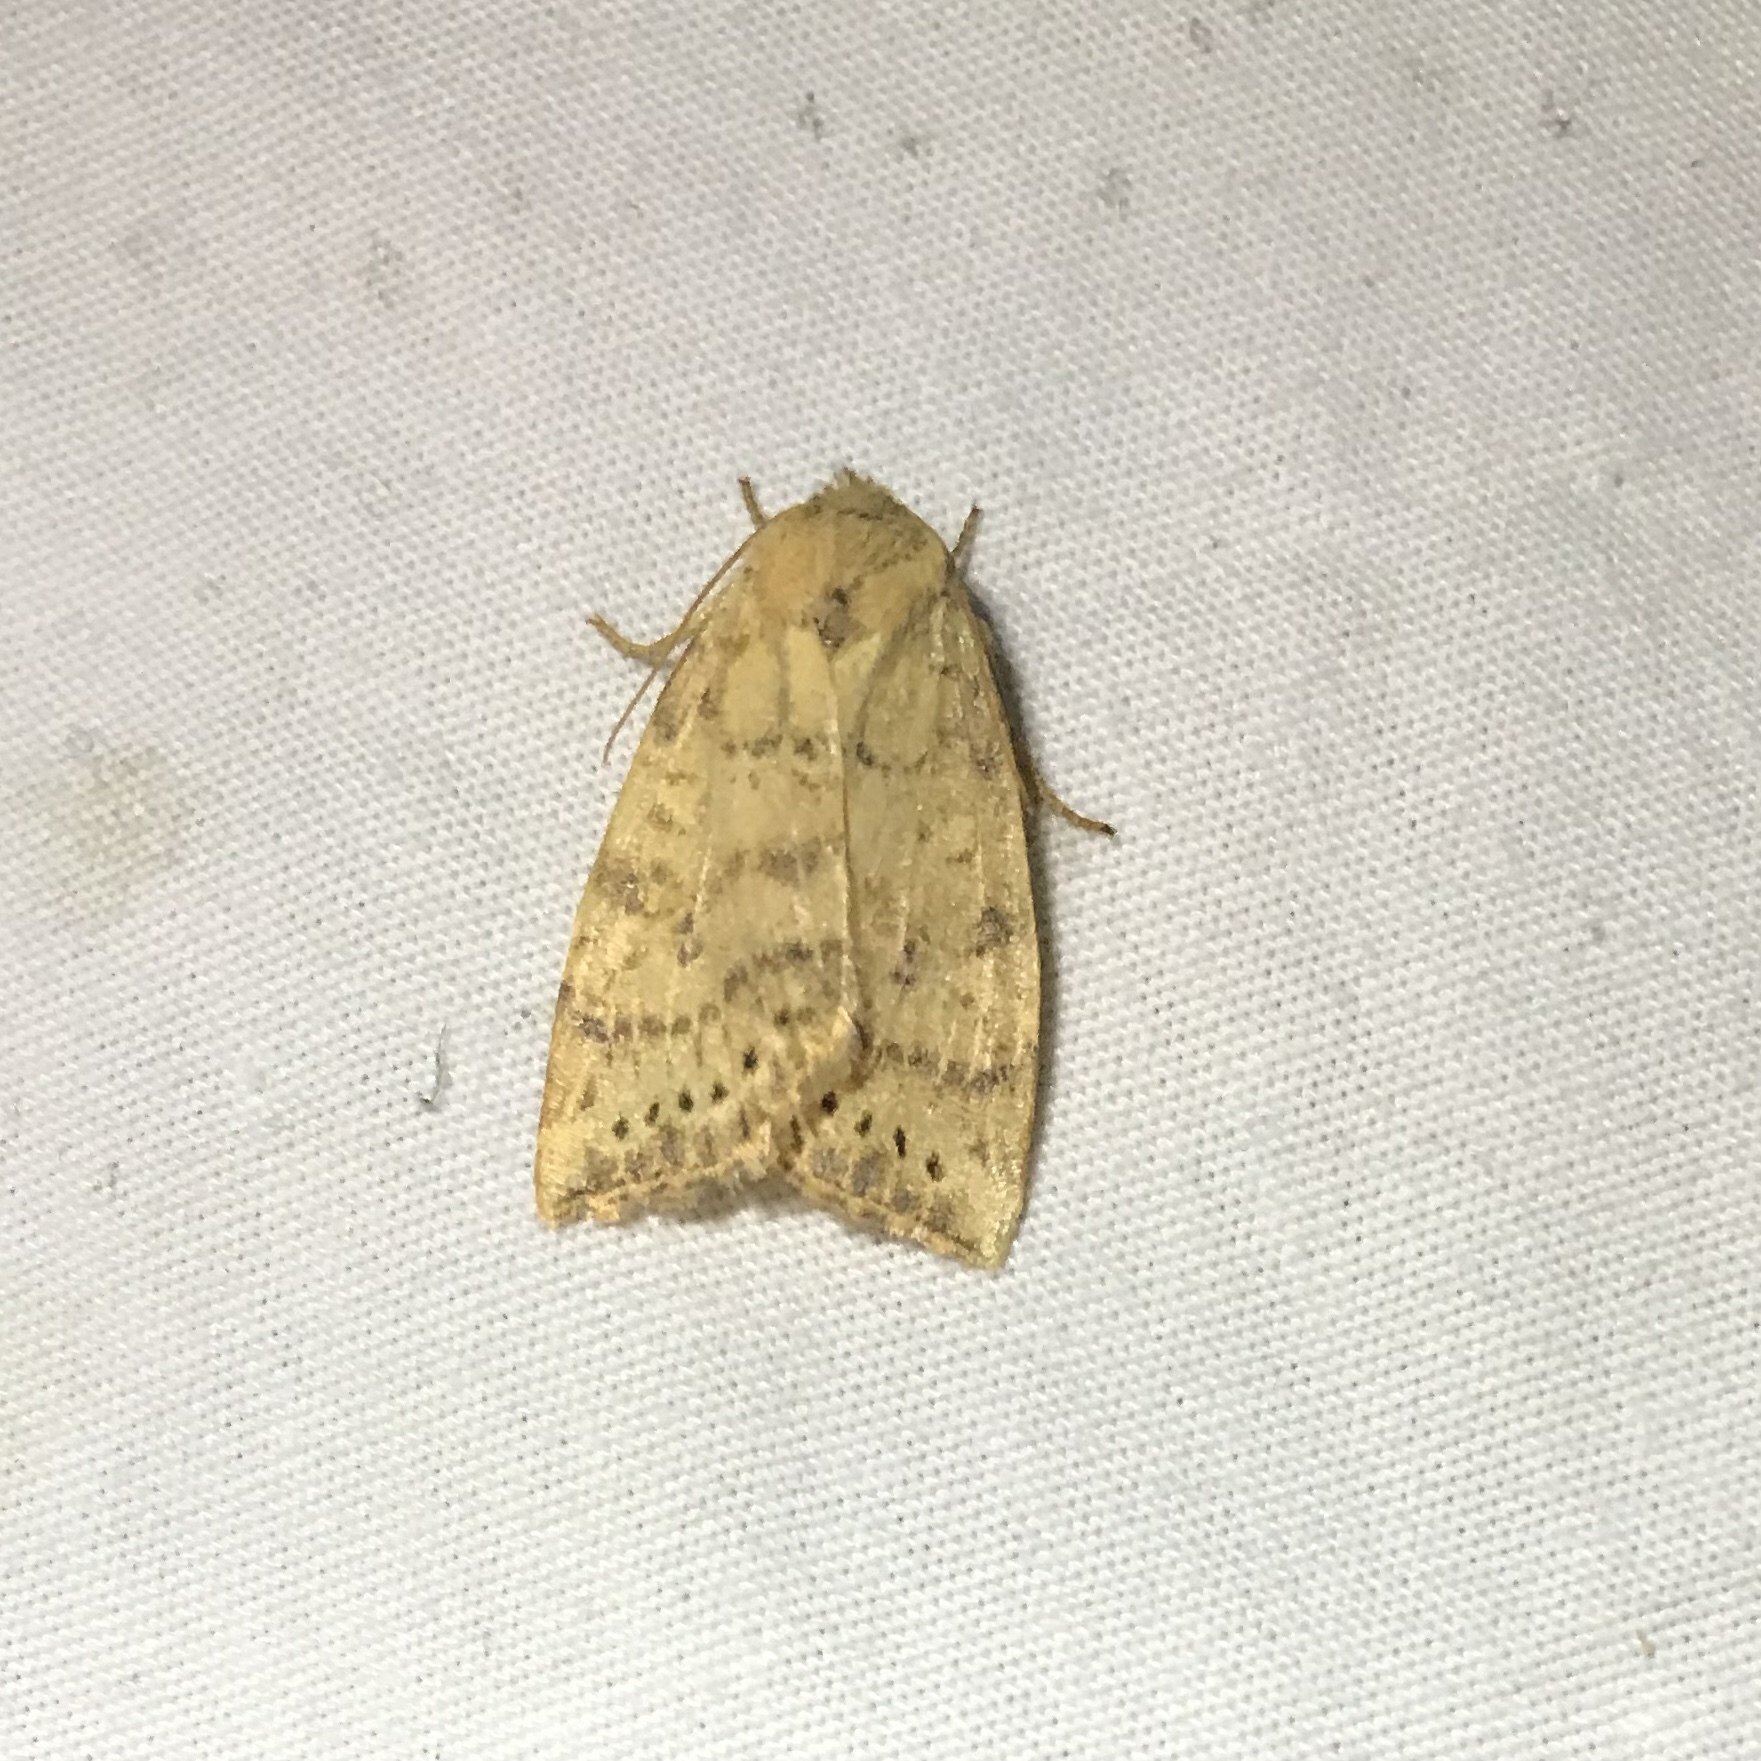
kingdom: Animalia
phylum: Arthropoda
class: Insecta
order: Lepidoptera
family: Noctuidae
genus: Anathix
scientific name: Anathix ralla
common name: Dotted sallow
